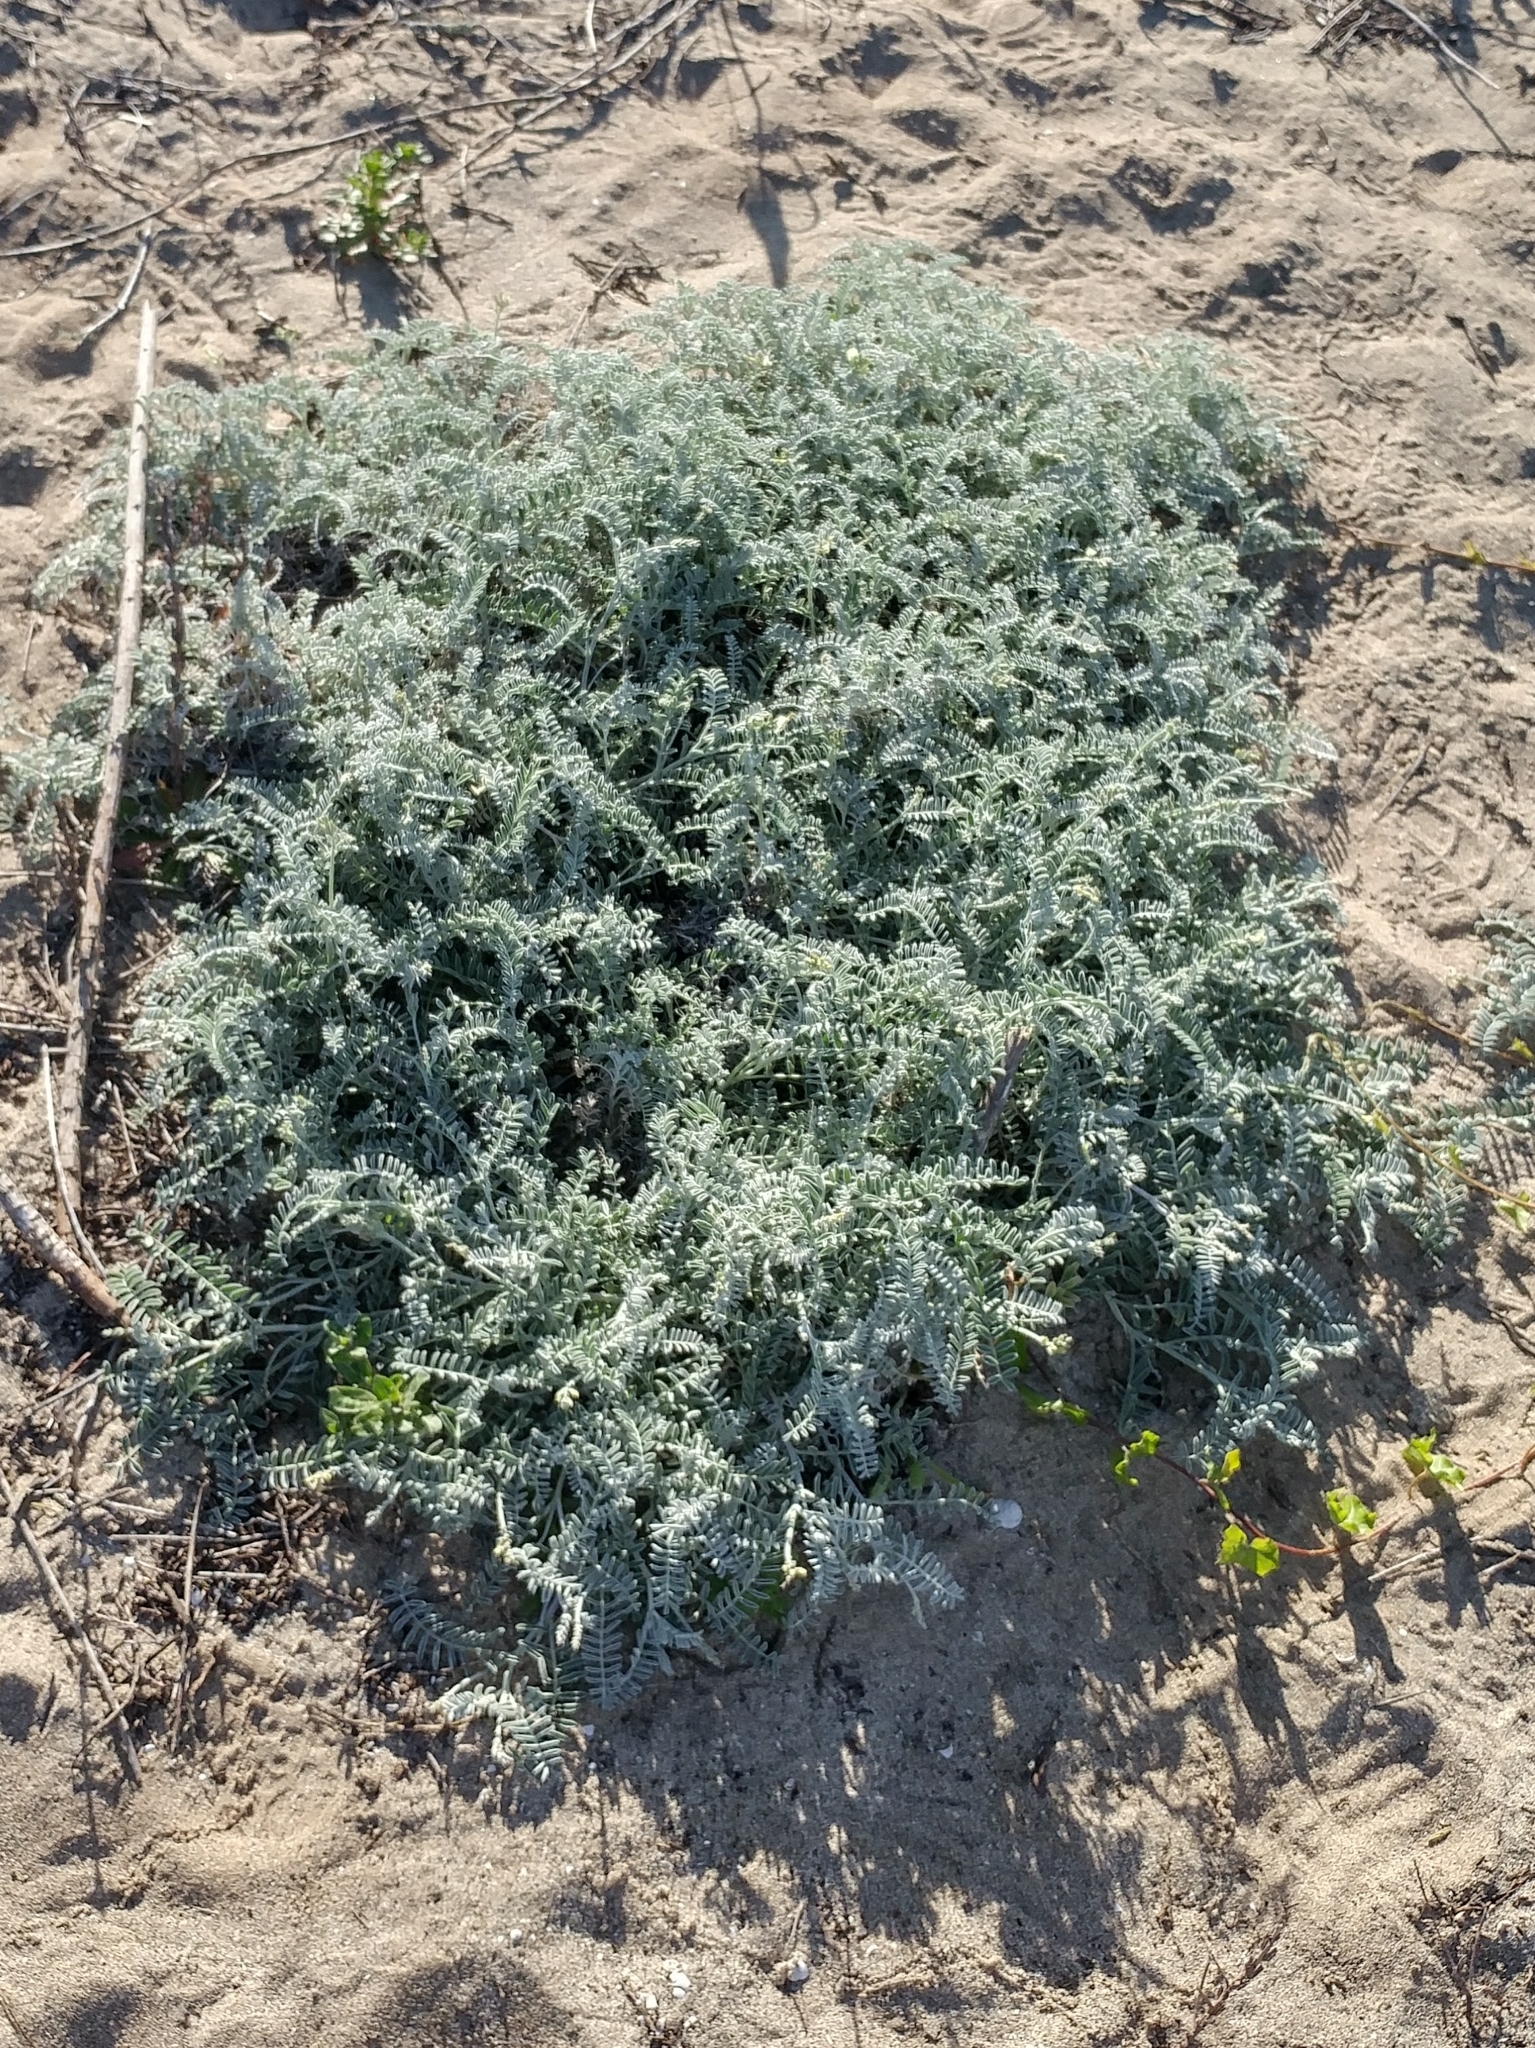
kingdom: Plantae
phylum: Tracheophyta
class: Magnoliopsida
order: Fabales
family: Fabaceae
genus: Astragalus
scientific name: Astragalus miguelensis
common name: San miguel milk-vetch
